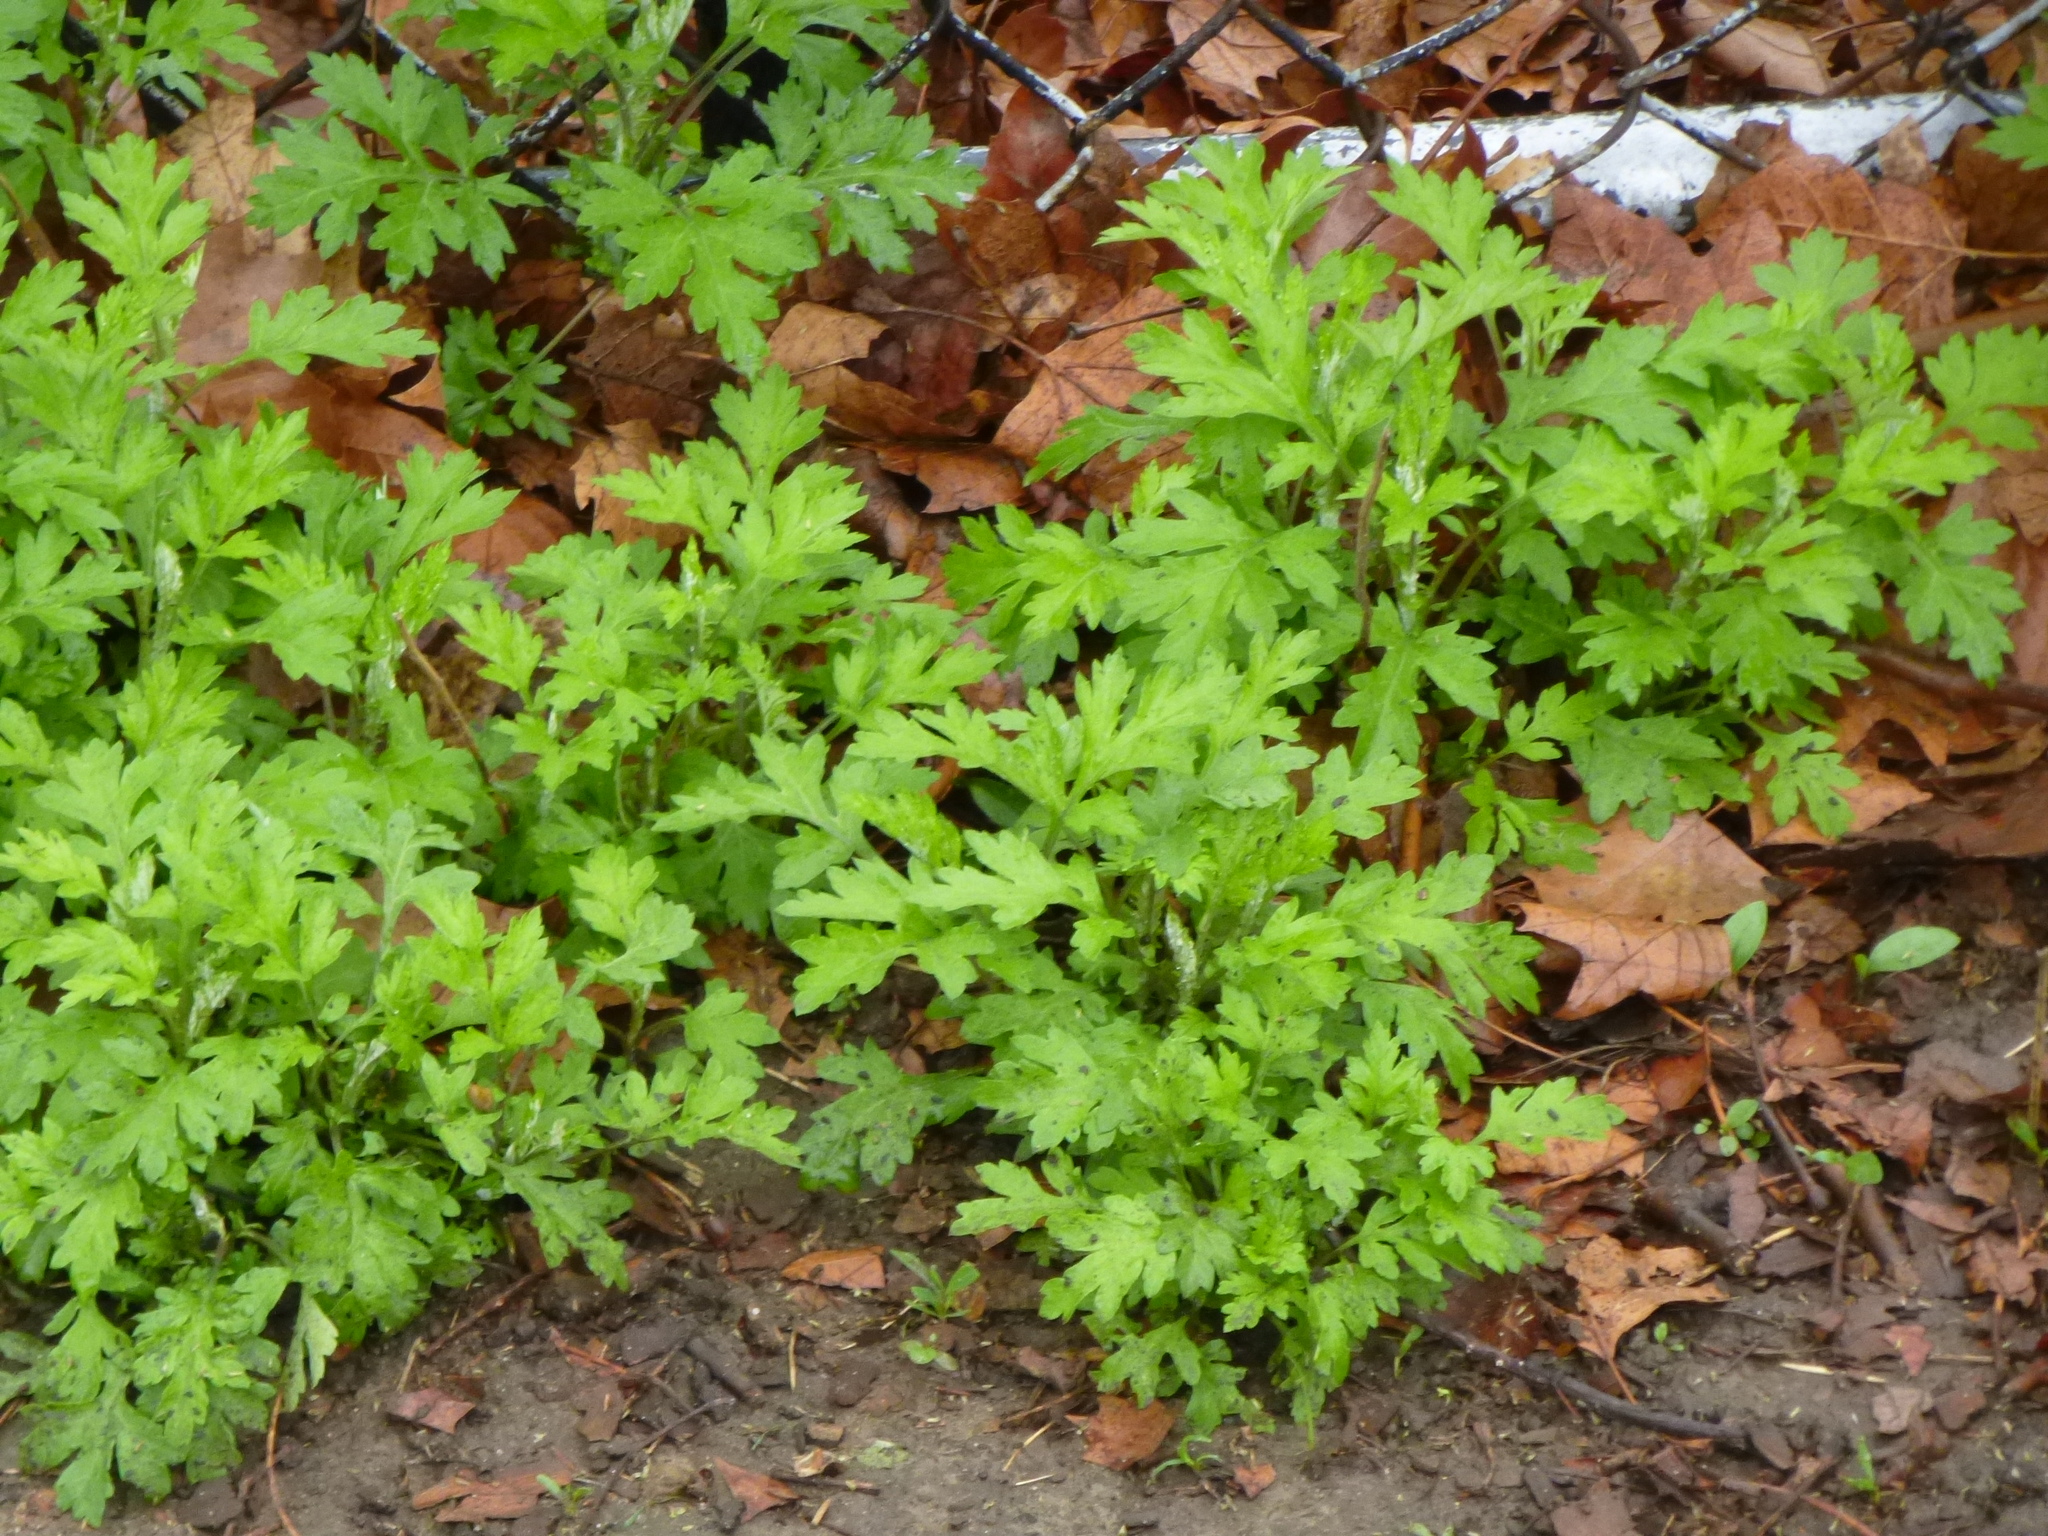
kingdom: Plantae
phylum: Tracheophyta
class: Magnoliopsida
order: Asterales
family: Asteraceae
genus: Artemisia
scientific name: Artemisia vulgaris
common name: Mugwort
